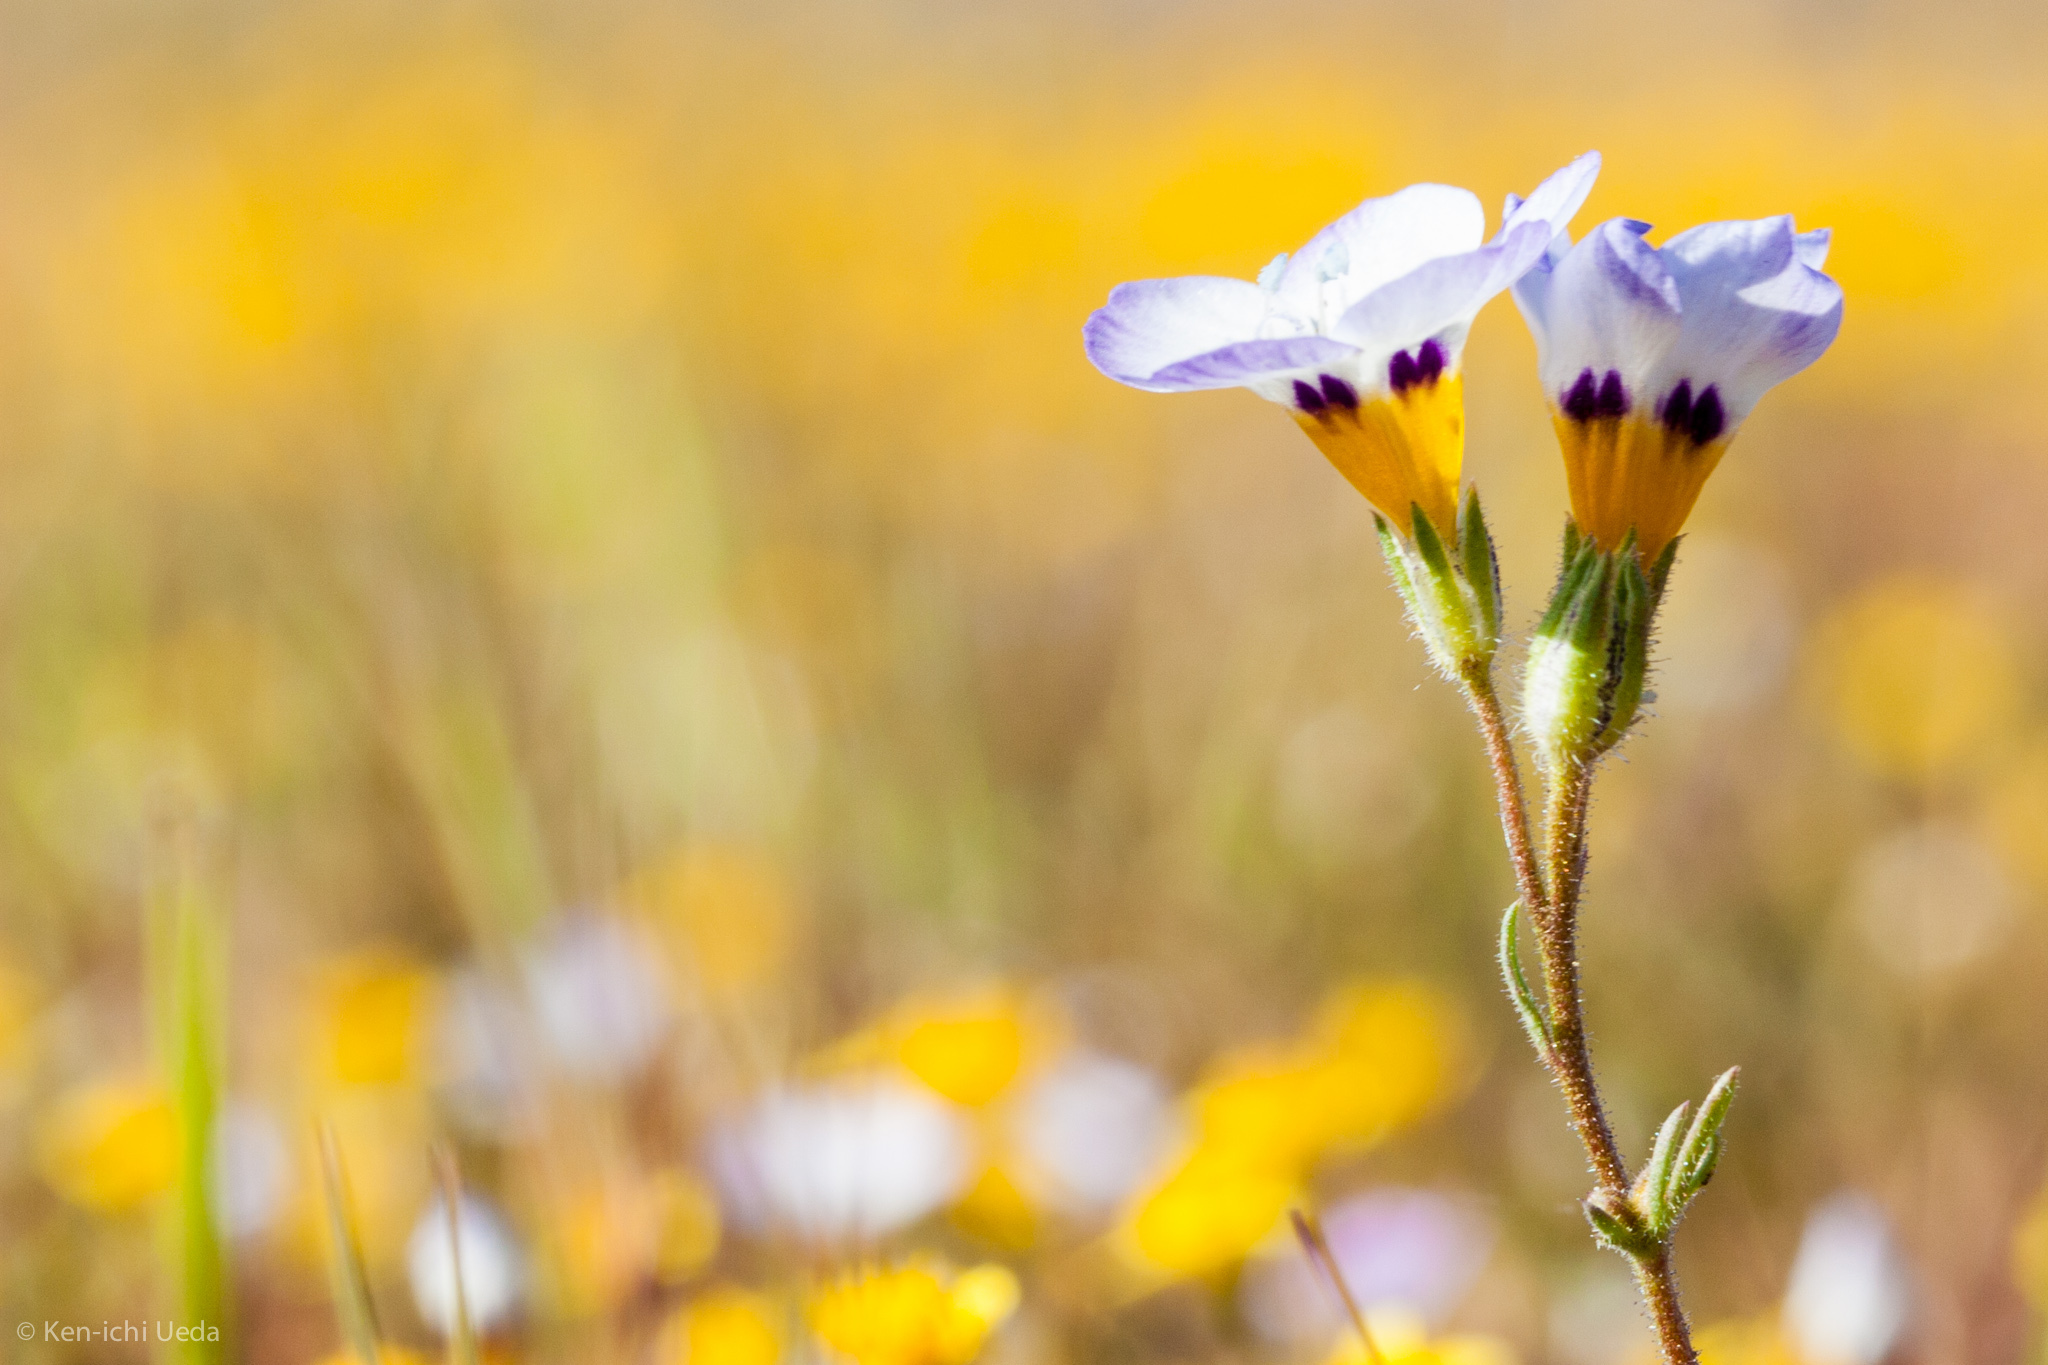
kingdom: Plantae
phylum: Tracheophyta
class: Magnoliopsida
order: Ericales
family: Polemoniaceae
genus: Gilia
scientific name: Gilia tricolor
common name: Bird's-eyes
